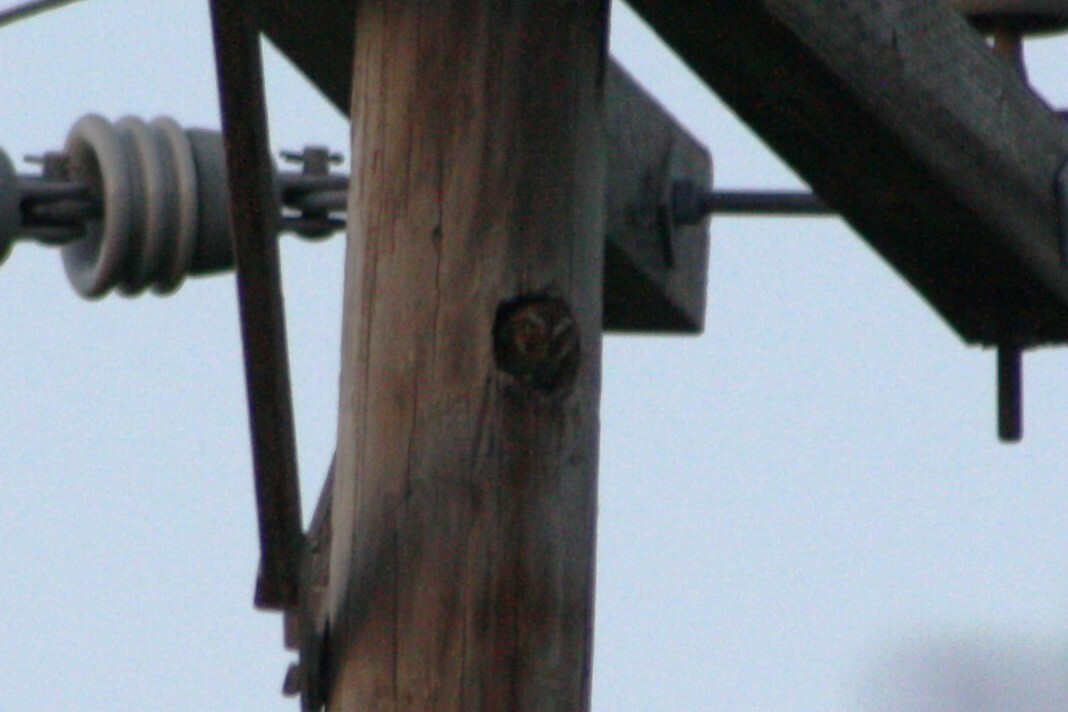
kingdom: Animalia
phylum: Chordata
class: Aves
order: Strigiformes
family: Strigidae
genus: Micrathene
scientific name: Micrathene whitneyi
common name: Elf owl
